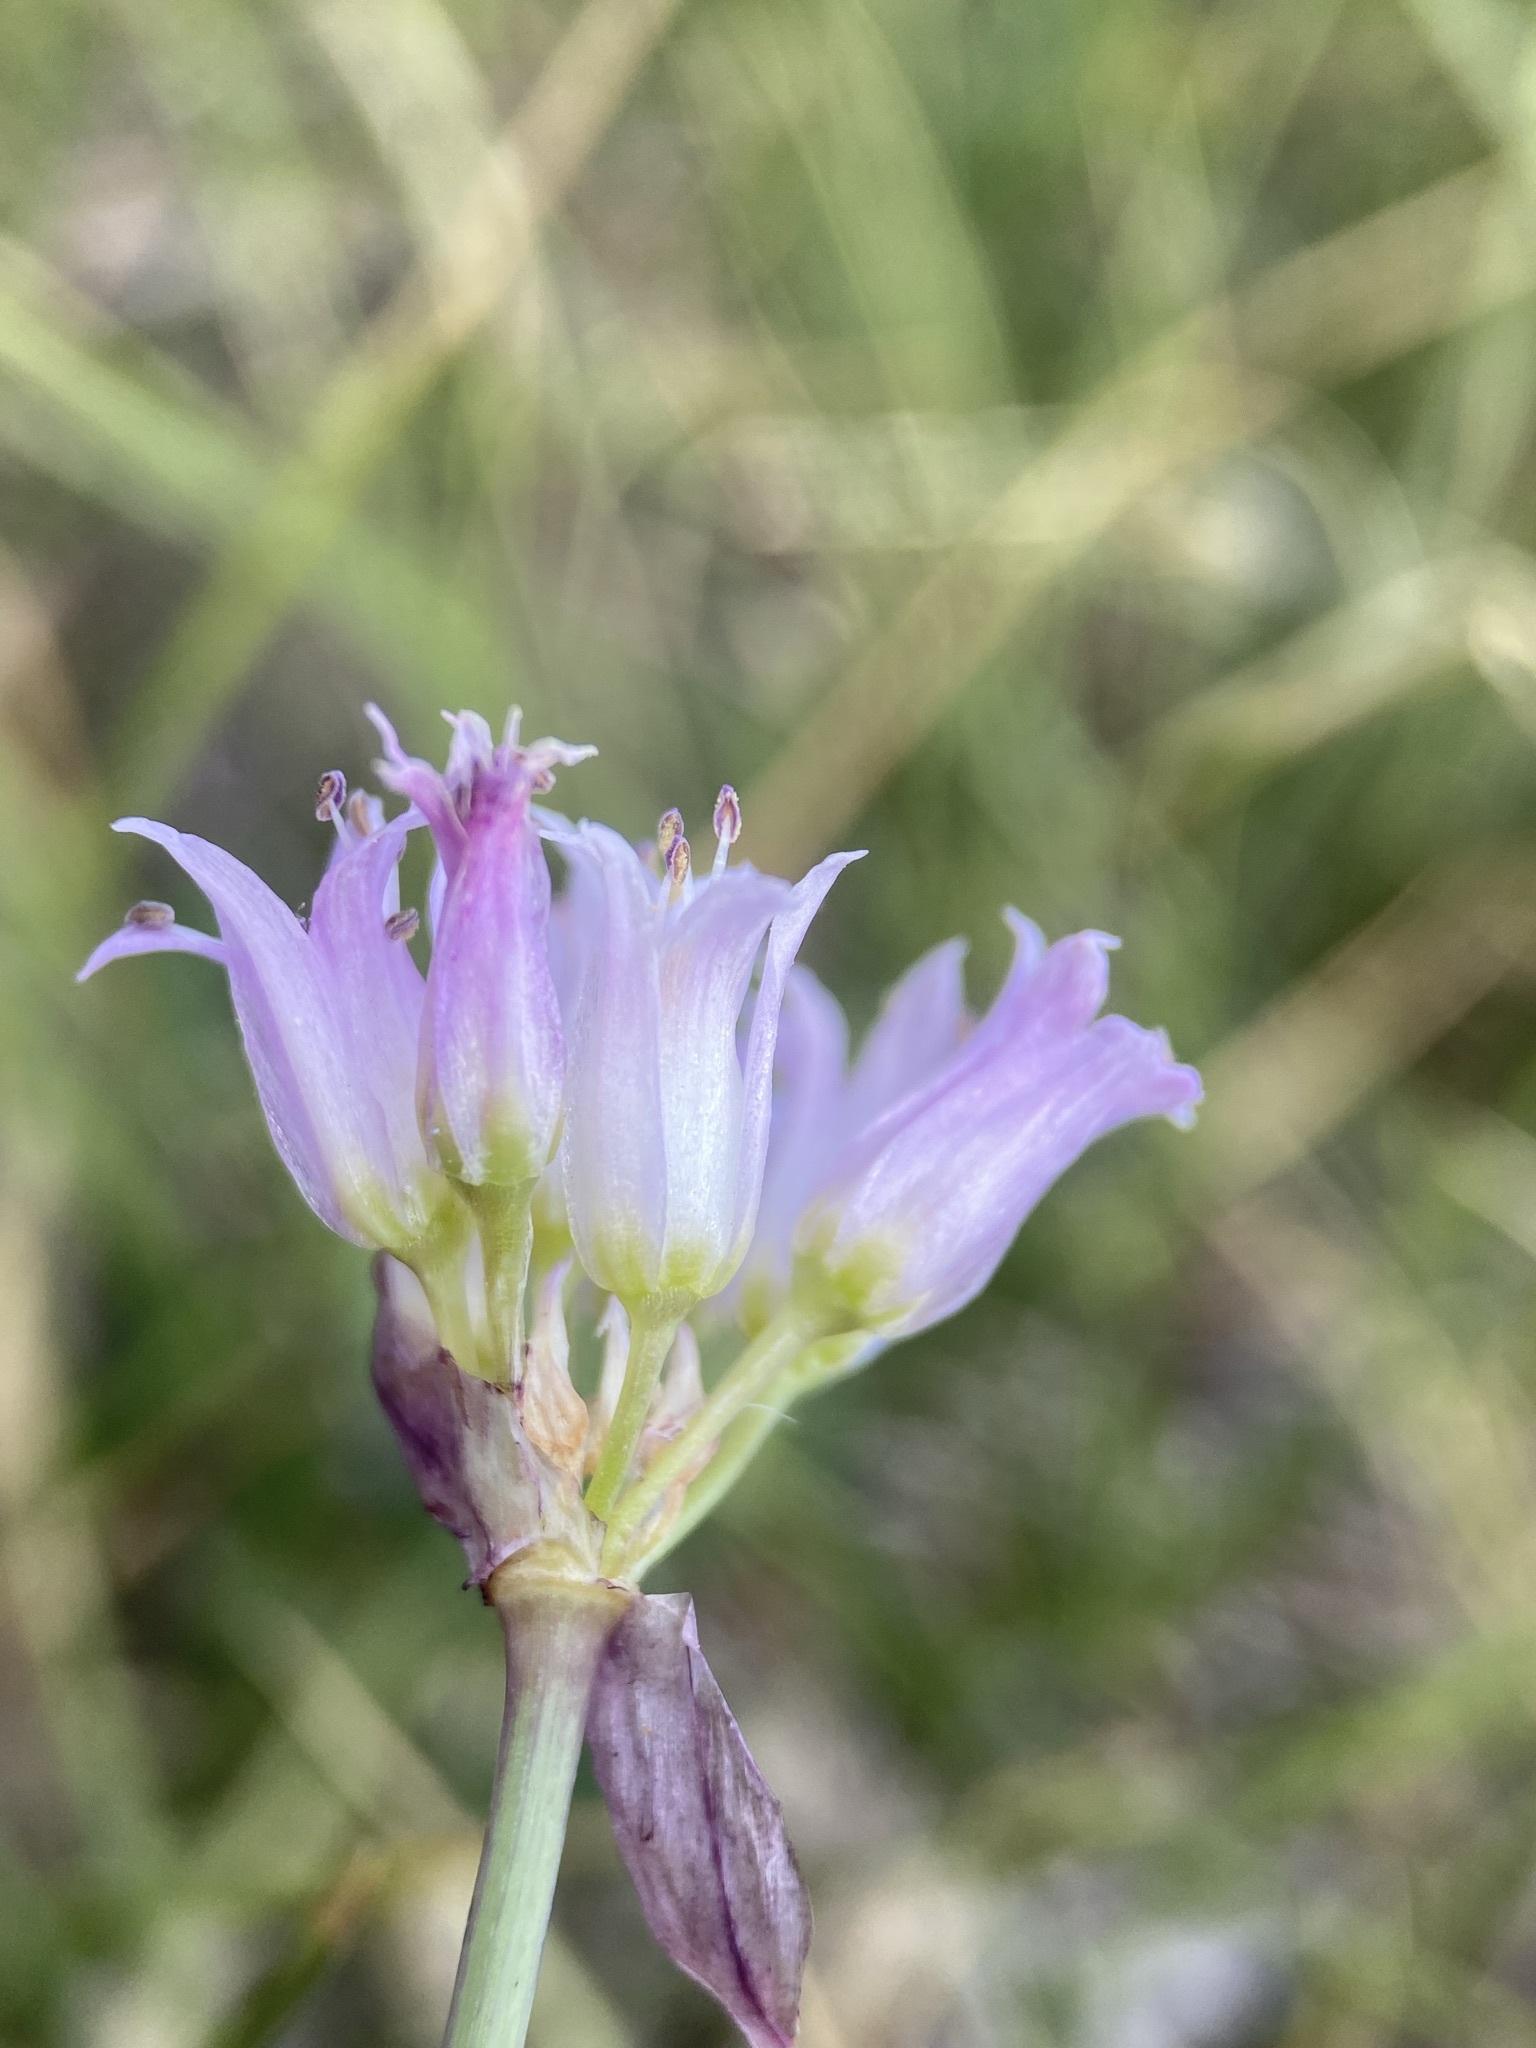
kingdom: Plantae
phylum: Tracheophyta
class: Liliopsida
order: Asparagales
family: Amaryllidaceae
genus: Allium
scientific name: Allium geyeri
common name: Geyer's onion
